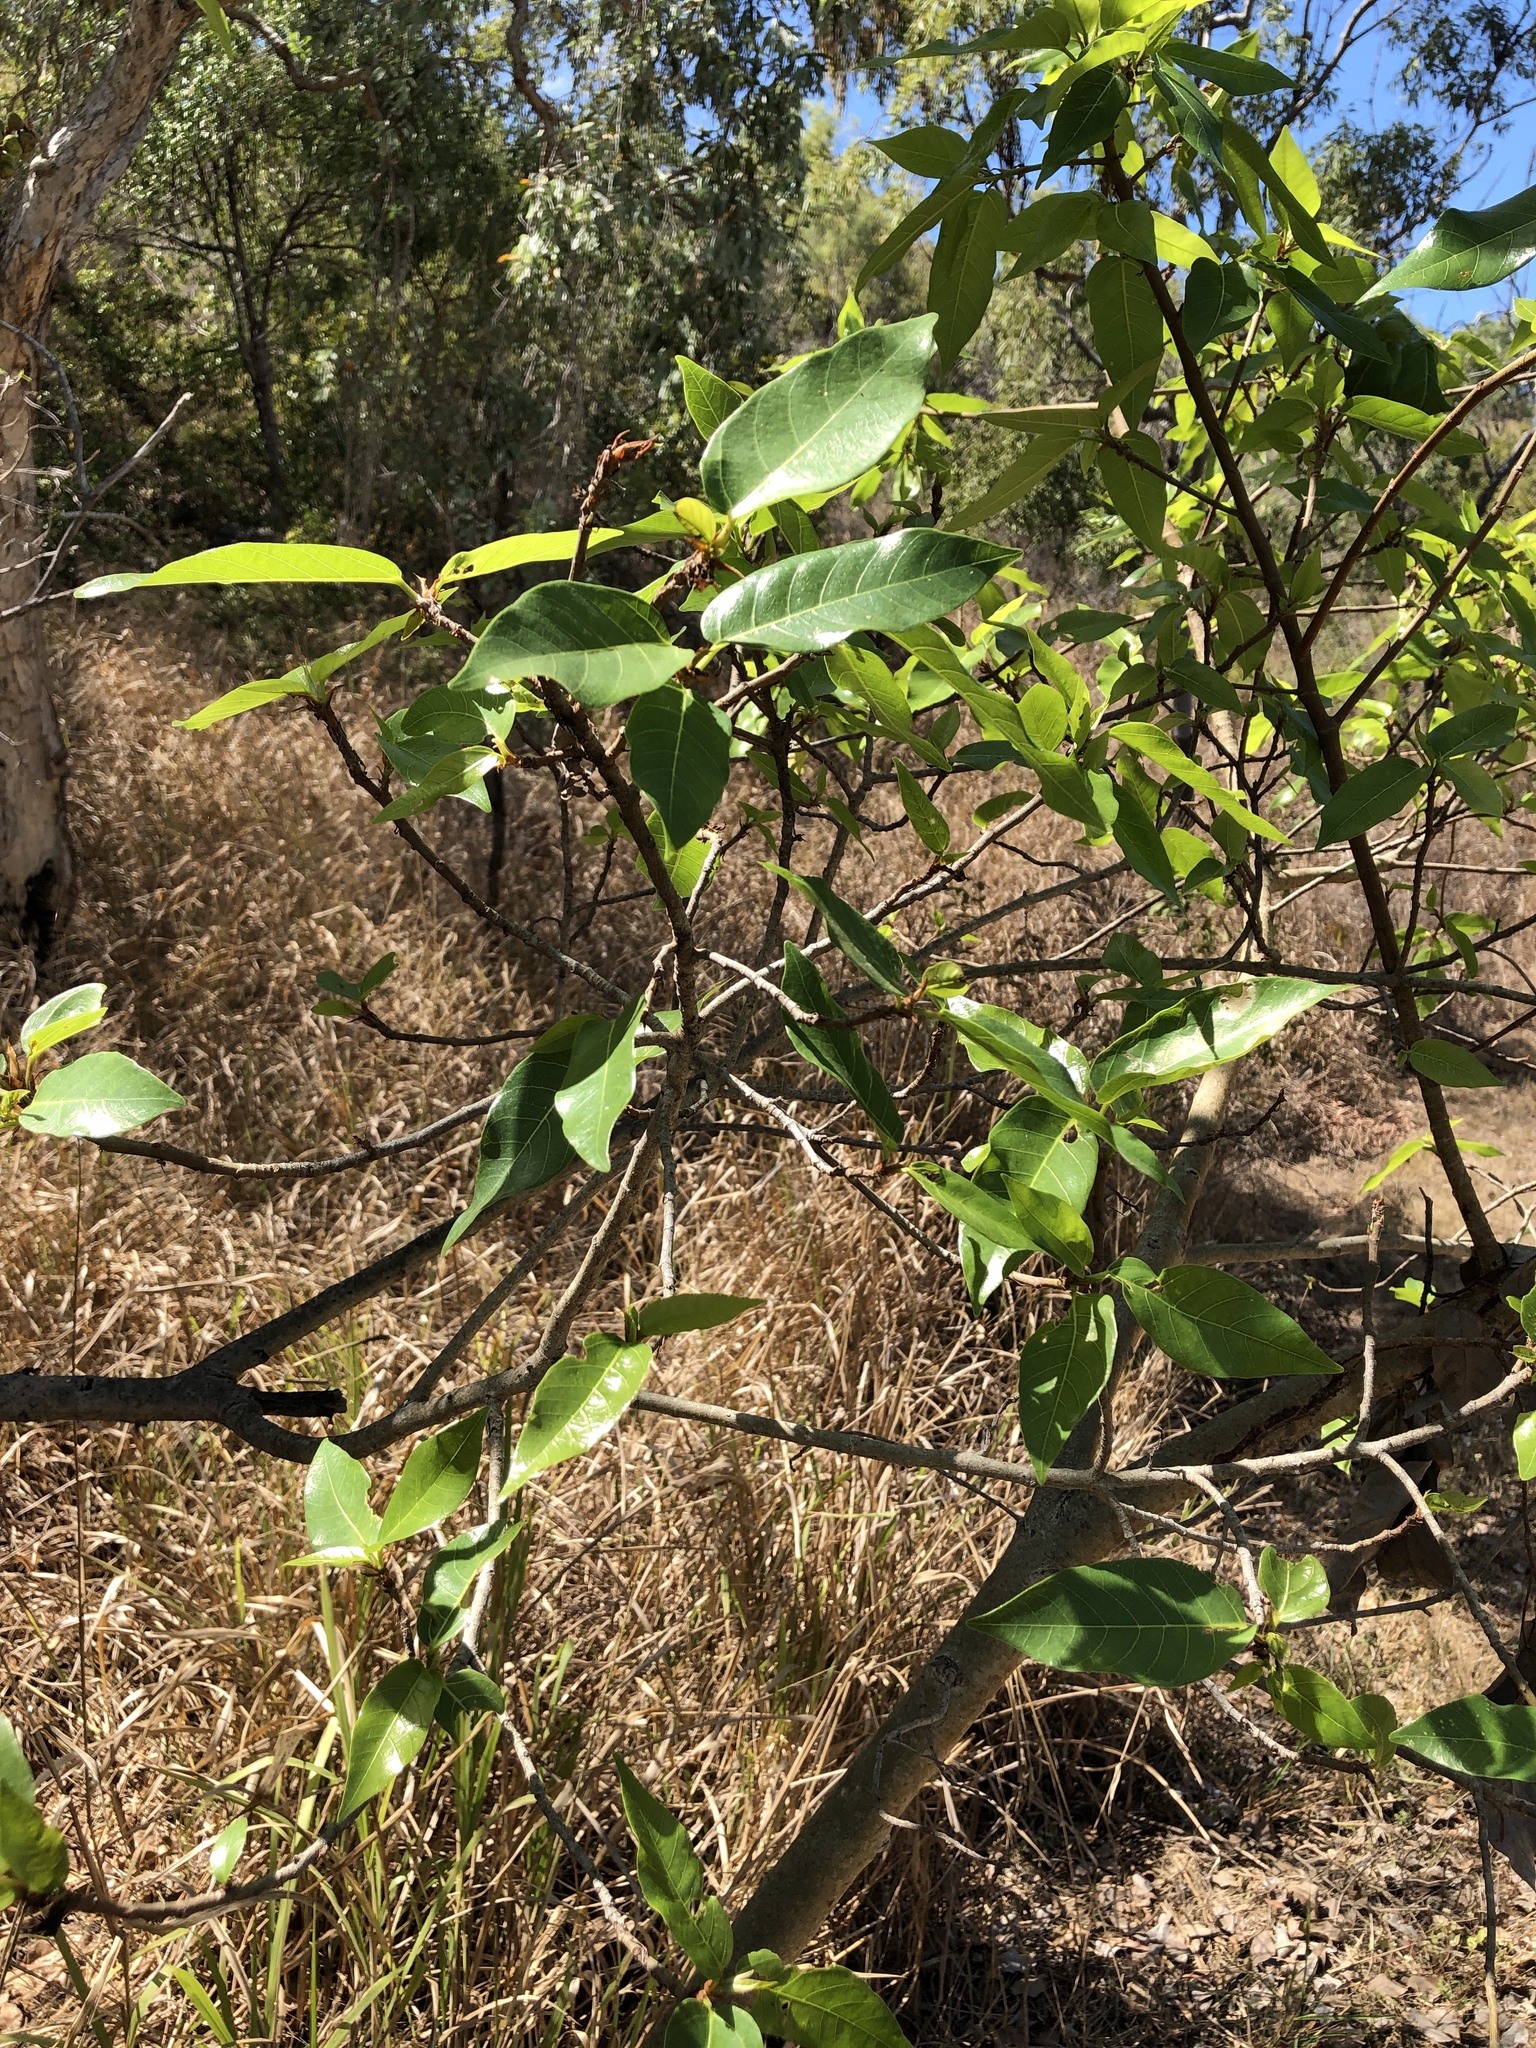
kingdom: Plantae
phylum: Tracheophyta
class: Magnoliopsida
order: Rosales
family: Moraceae
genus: Ficus
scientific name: Ficus racemosa
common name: Cluster fig
